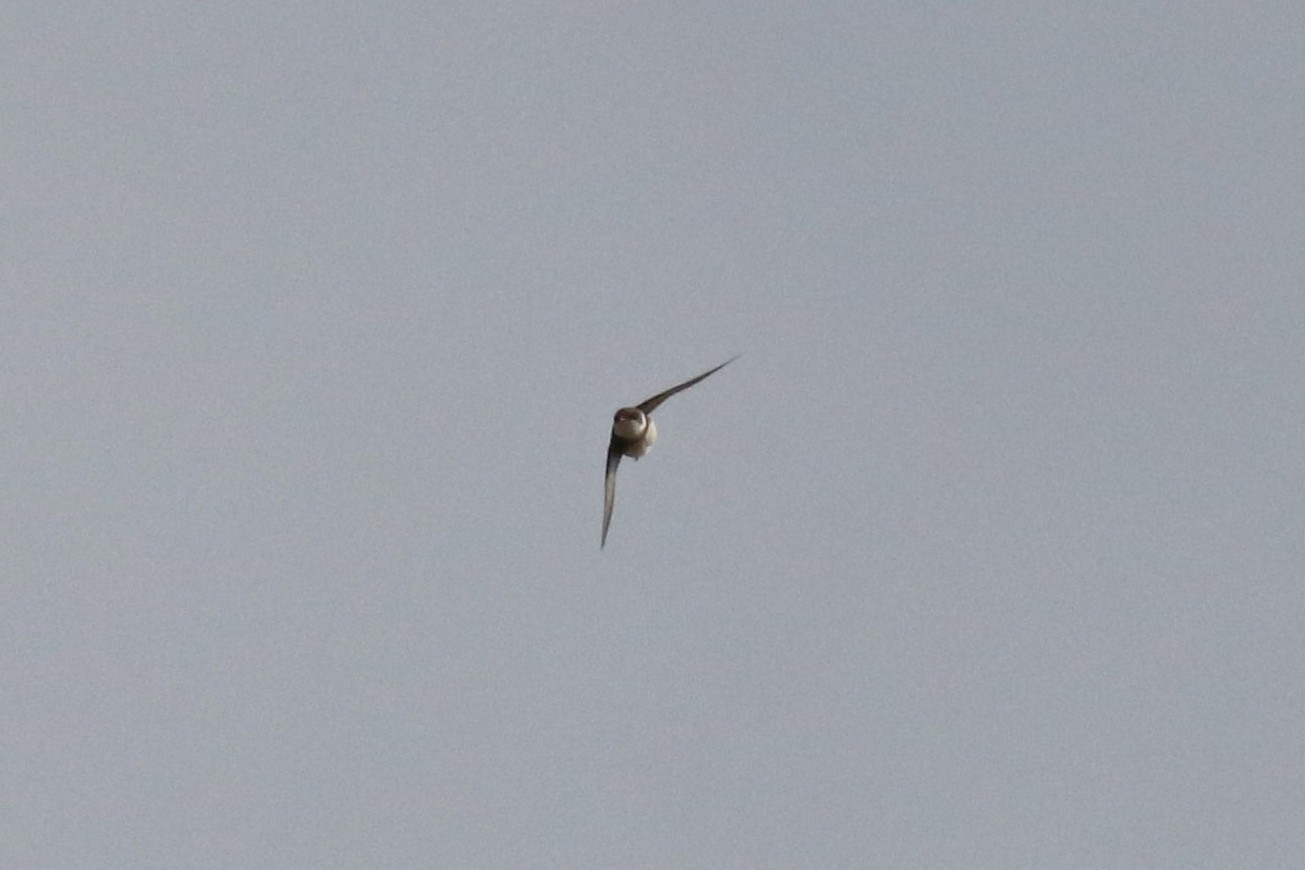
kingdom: Animalia
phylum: Chordata
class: Aves
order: Passeriformes
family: Hirundinidae
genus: Riparia
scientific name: Riparia riparia
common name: Sand martin
